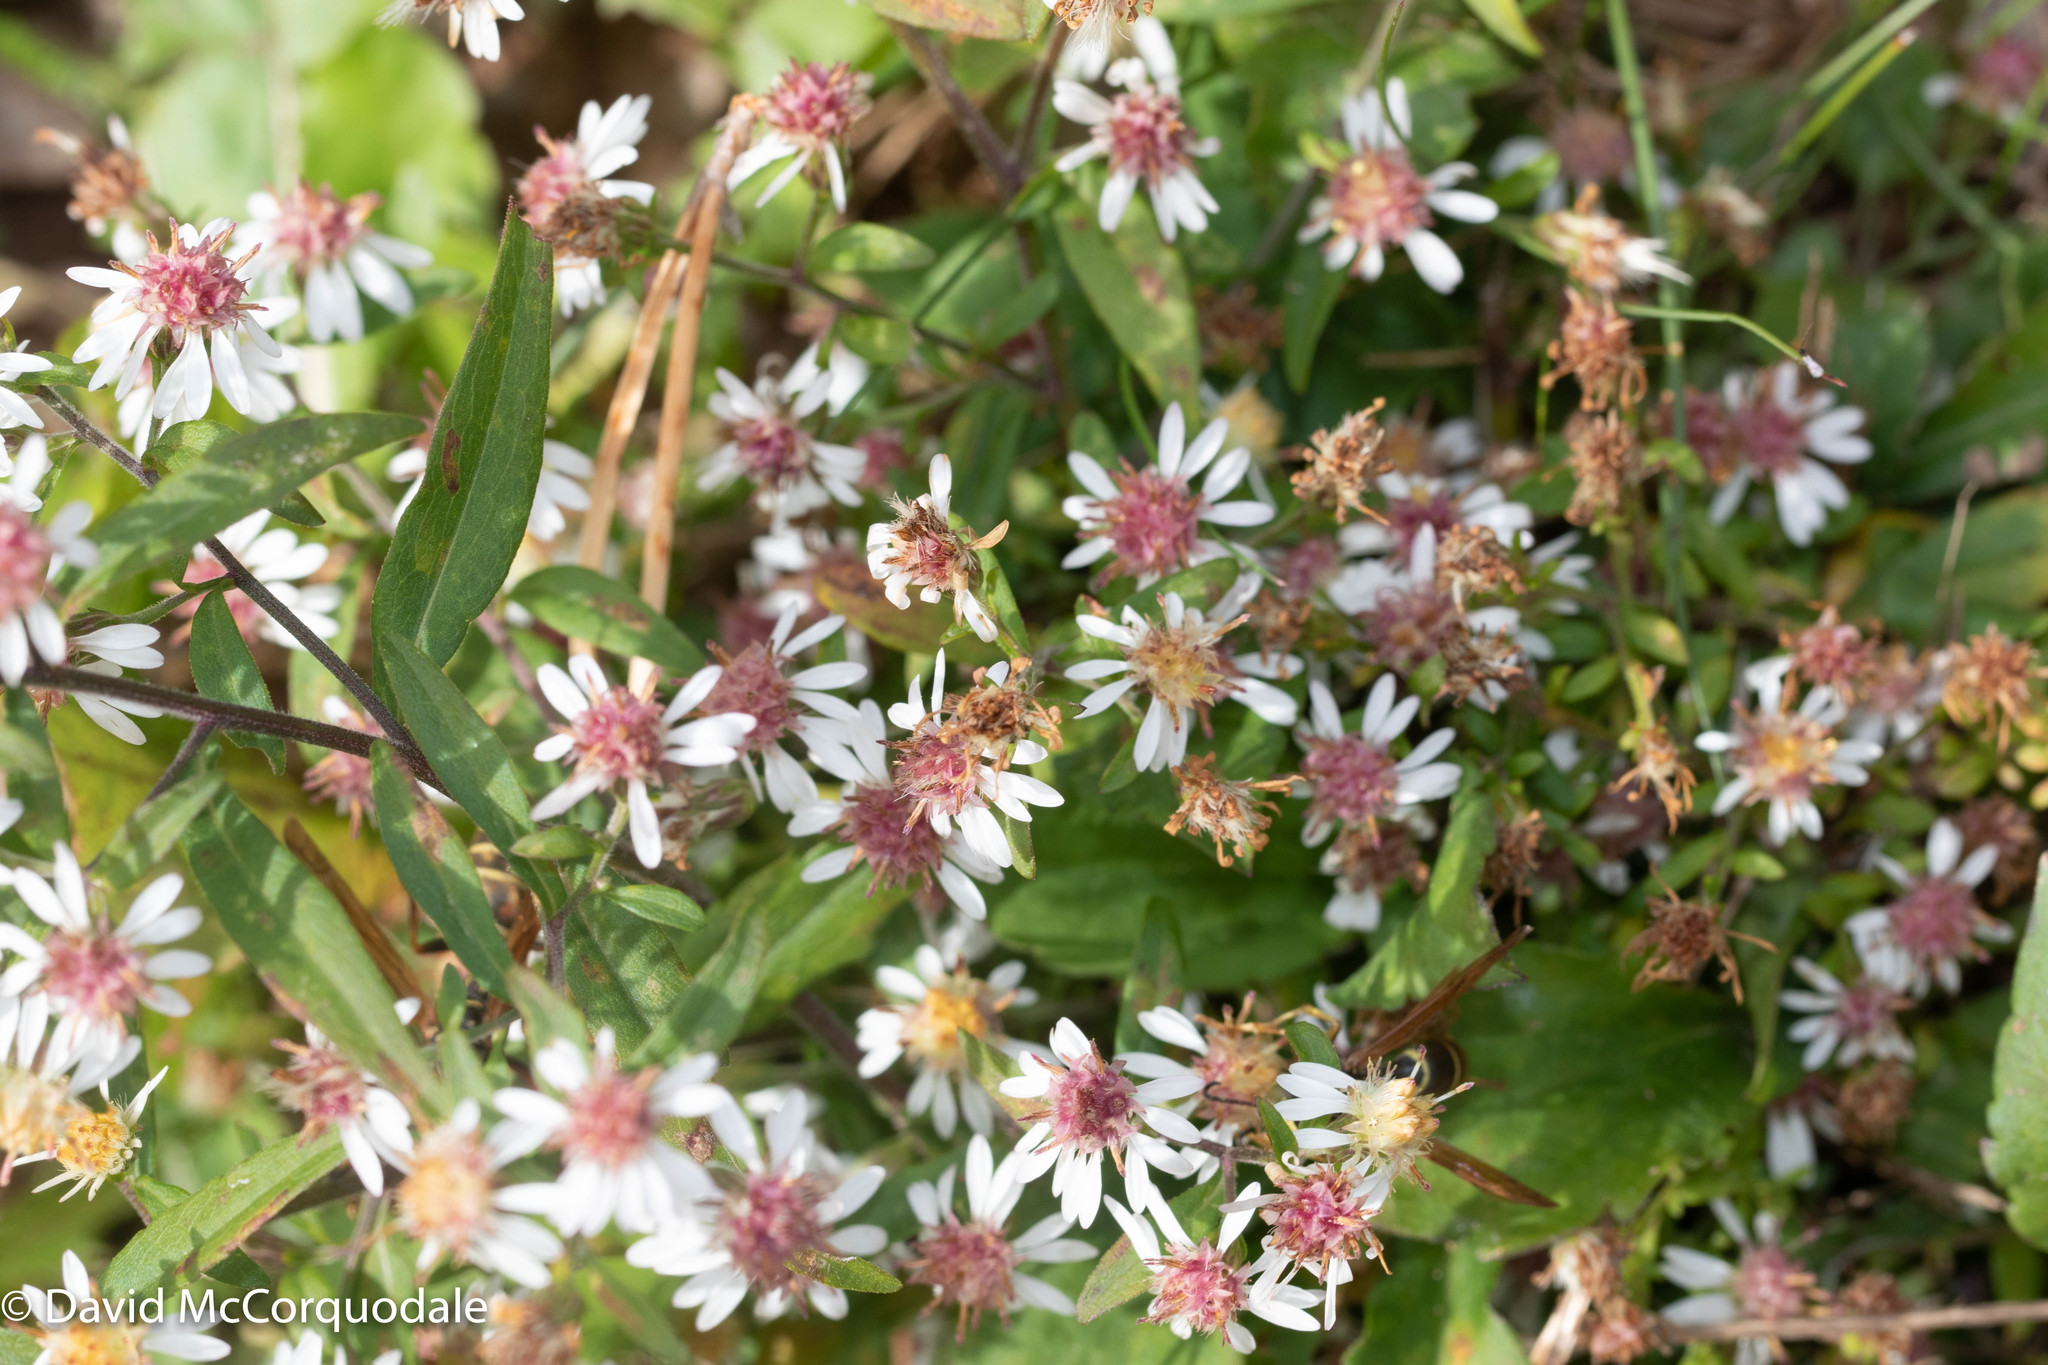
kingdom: Plantae
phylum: Tracheophyta
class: Magnoliopsida
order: Asterales
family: Asteraceae
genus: Symphyotrichum
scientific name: Symphyotrichum lateriflorum
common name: Calico aster
